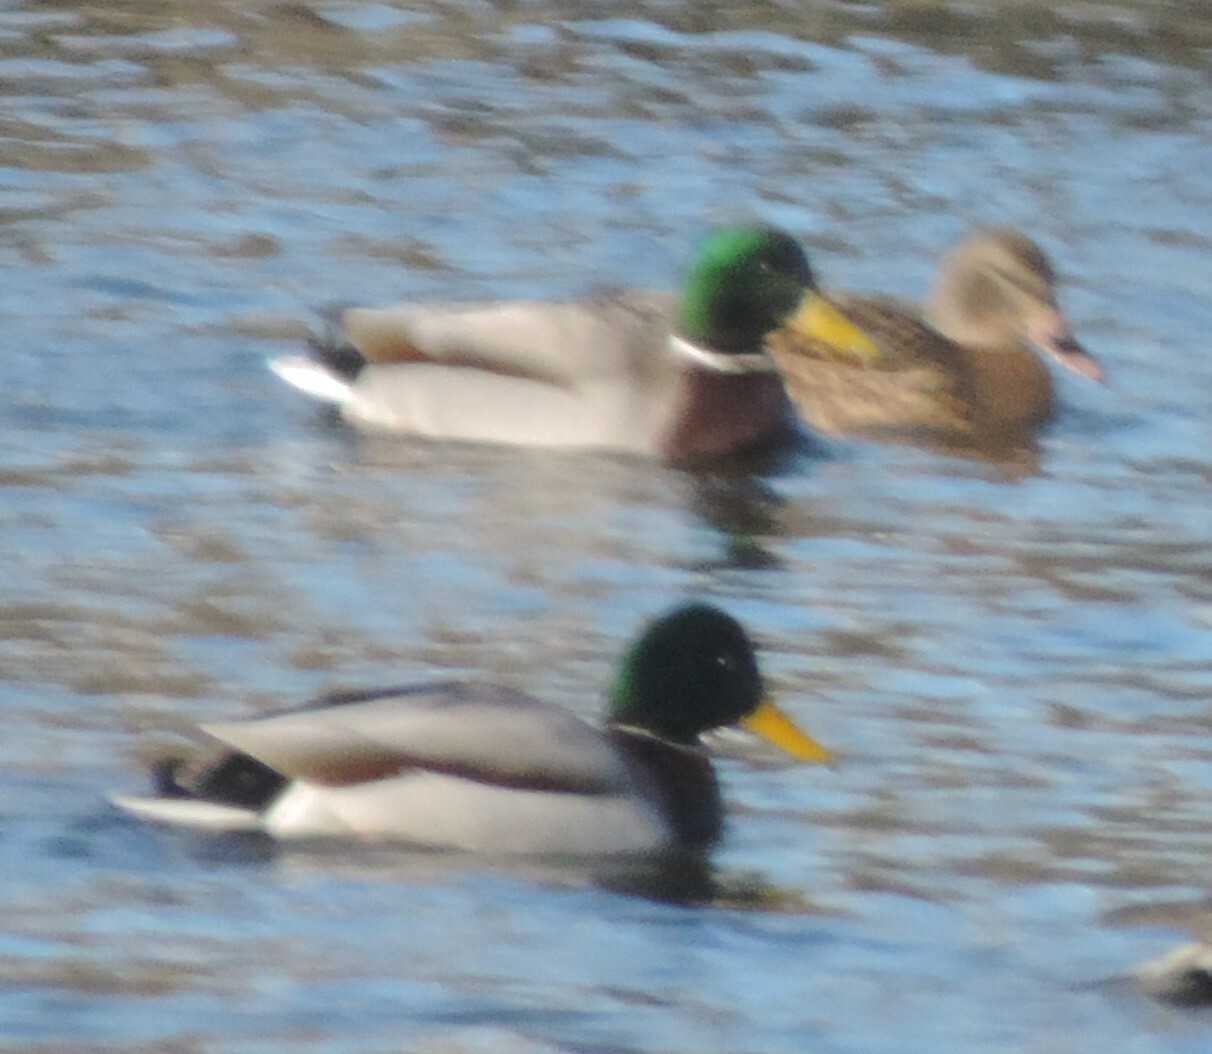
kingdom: Animalia
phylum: Chordata
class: Aves
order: Anseriformes
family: Anatidae
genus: Anas
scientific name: Anas platyrhynchos
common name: Mallard
